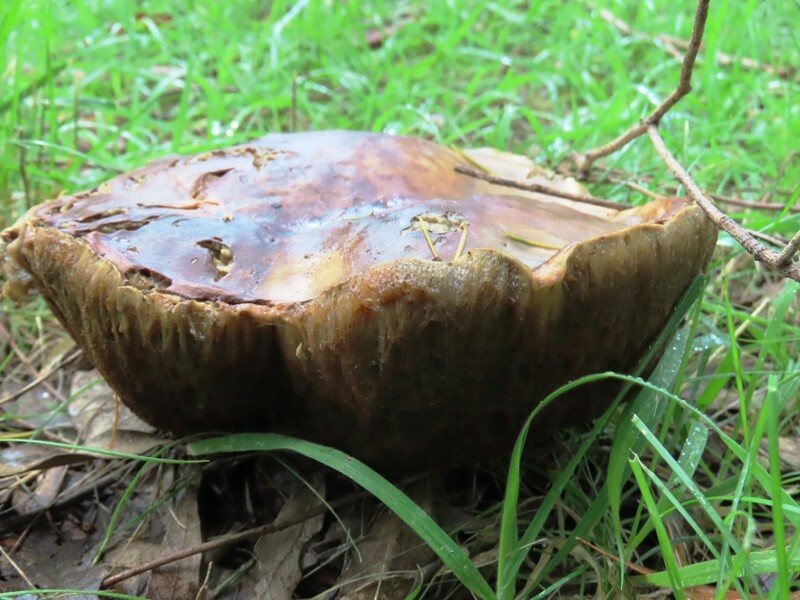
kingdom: Fungi
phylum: Basidiomycota
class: Agaricomycetes
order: Boletales
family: Boletinellaceae
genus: Phlebopus
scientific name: Phlebopus marginatus
